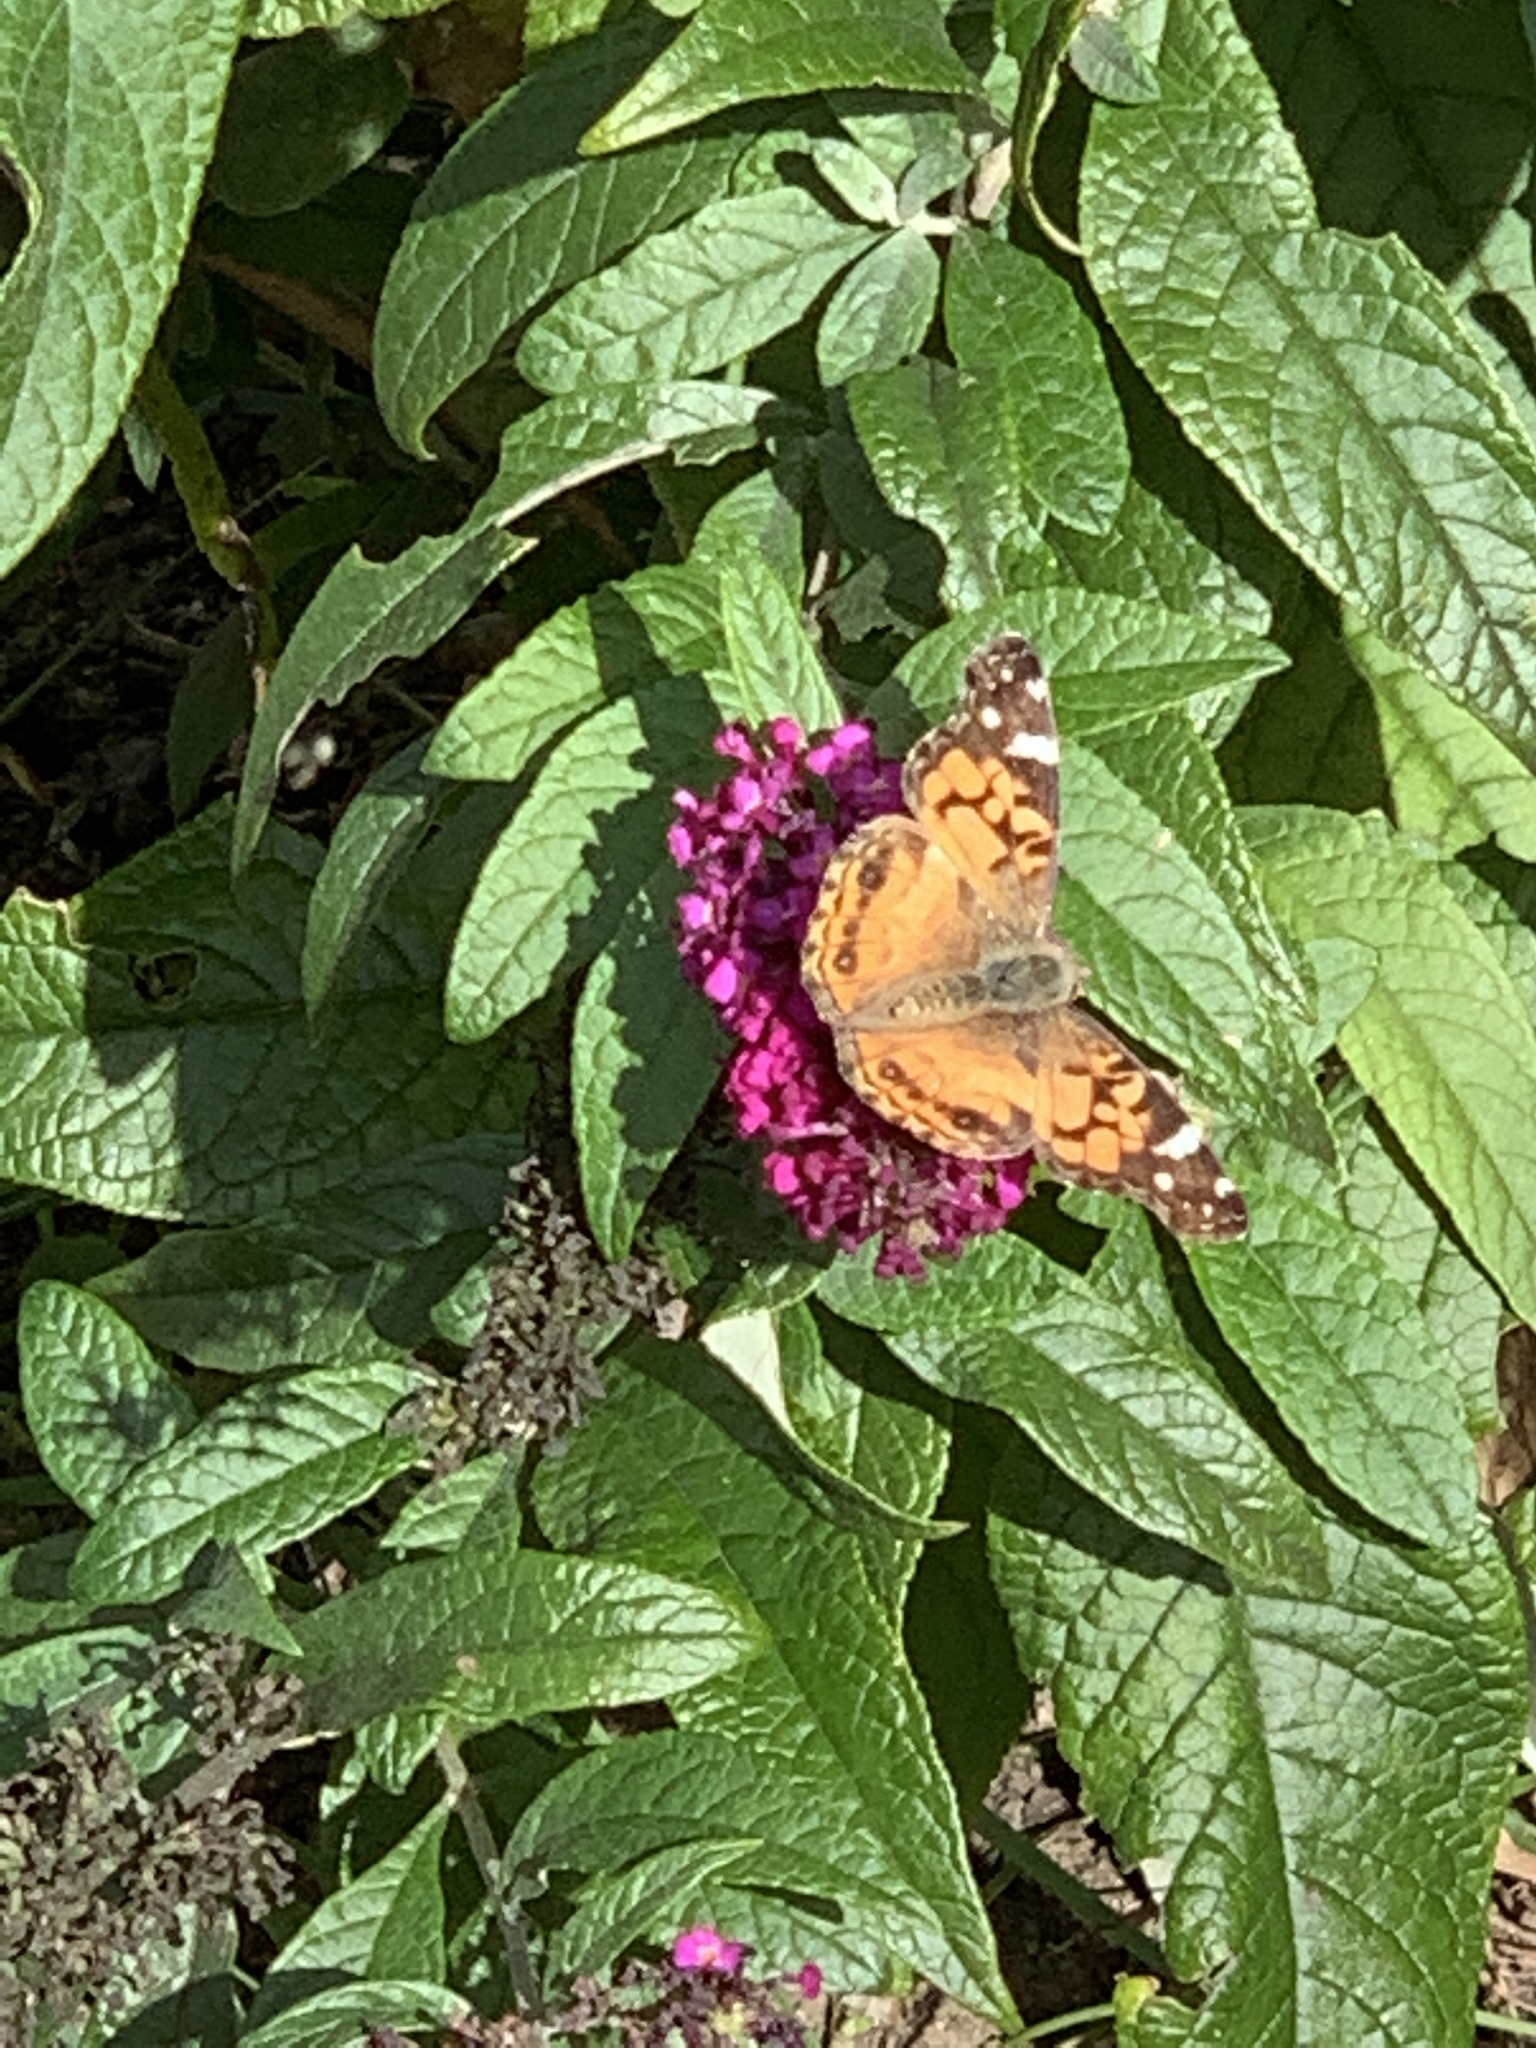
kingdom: Animalia
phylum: Arthropoda
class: Insecta
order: Lepidoptera
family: Nymphalidae
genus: Vanessa
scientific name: Vanessa virginiensis
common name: American lady
